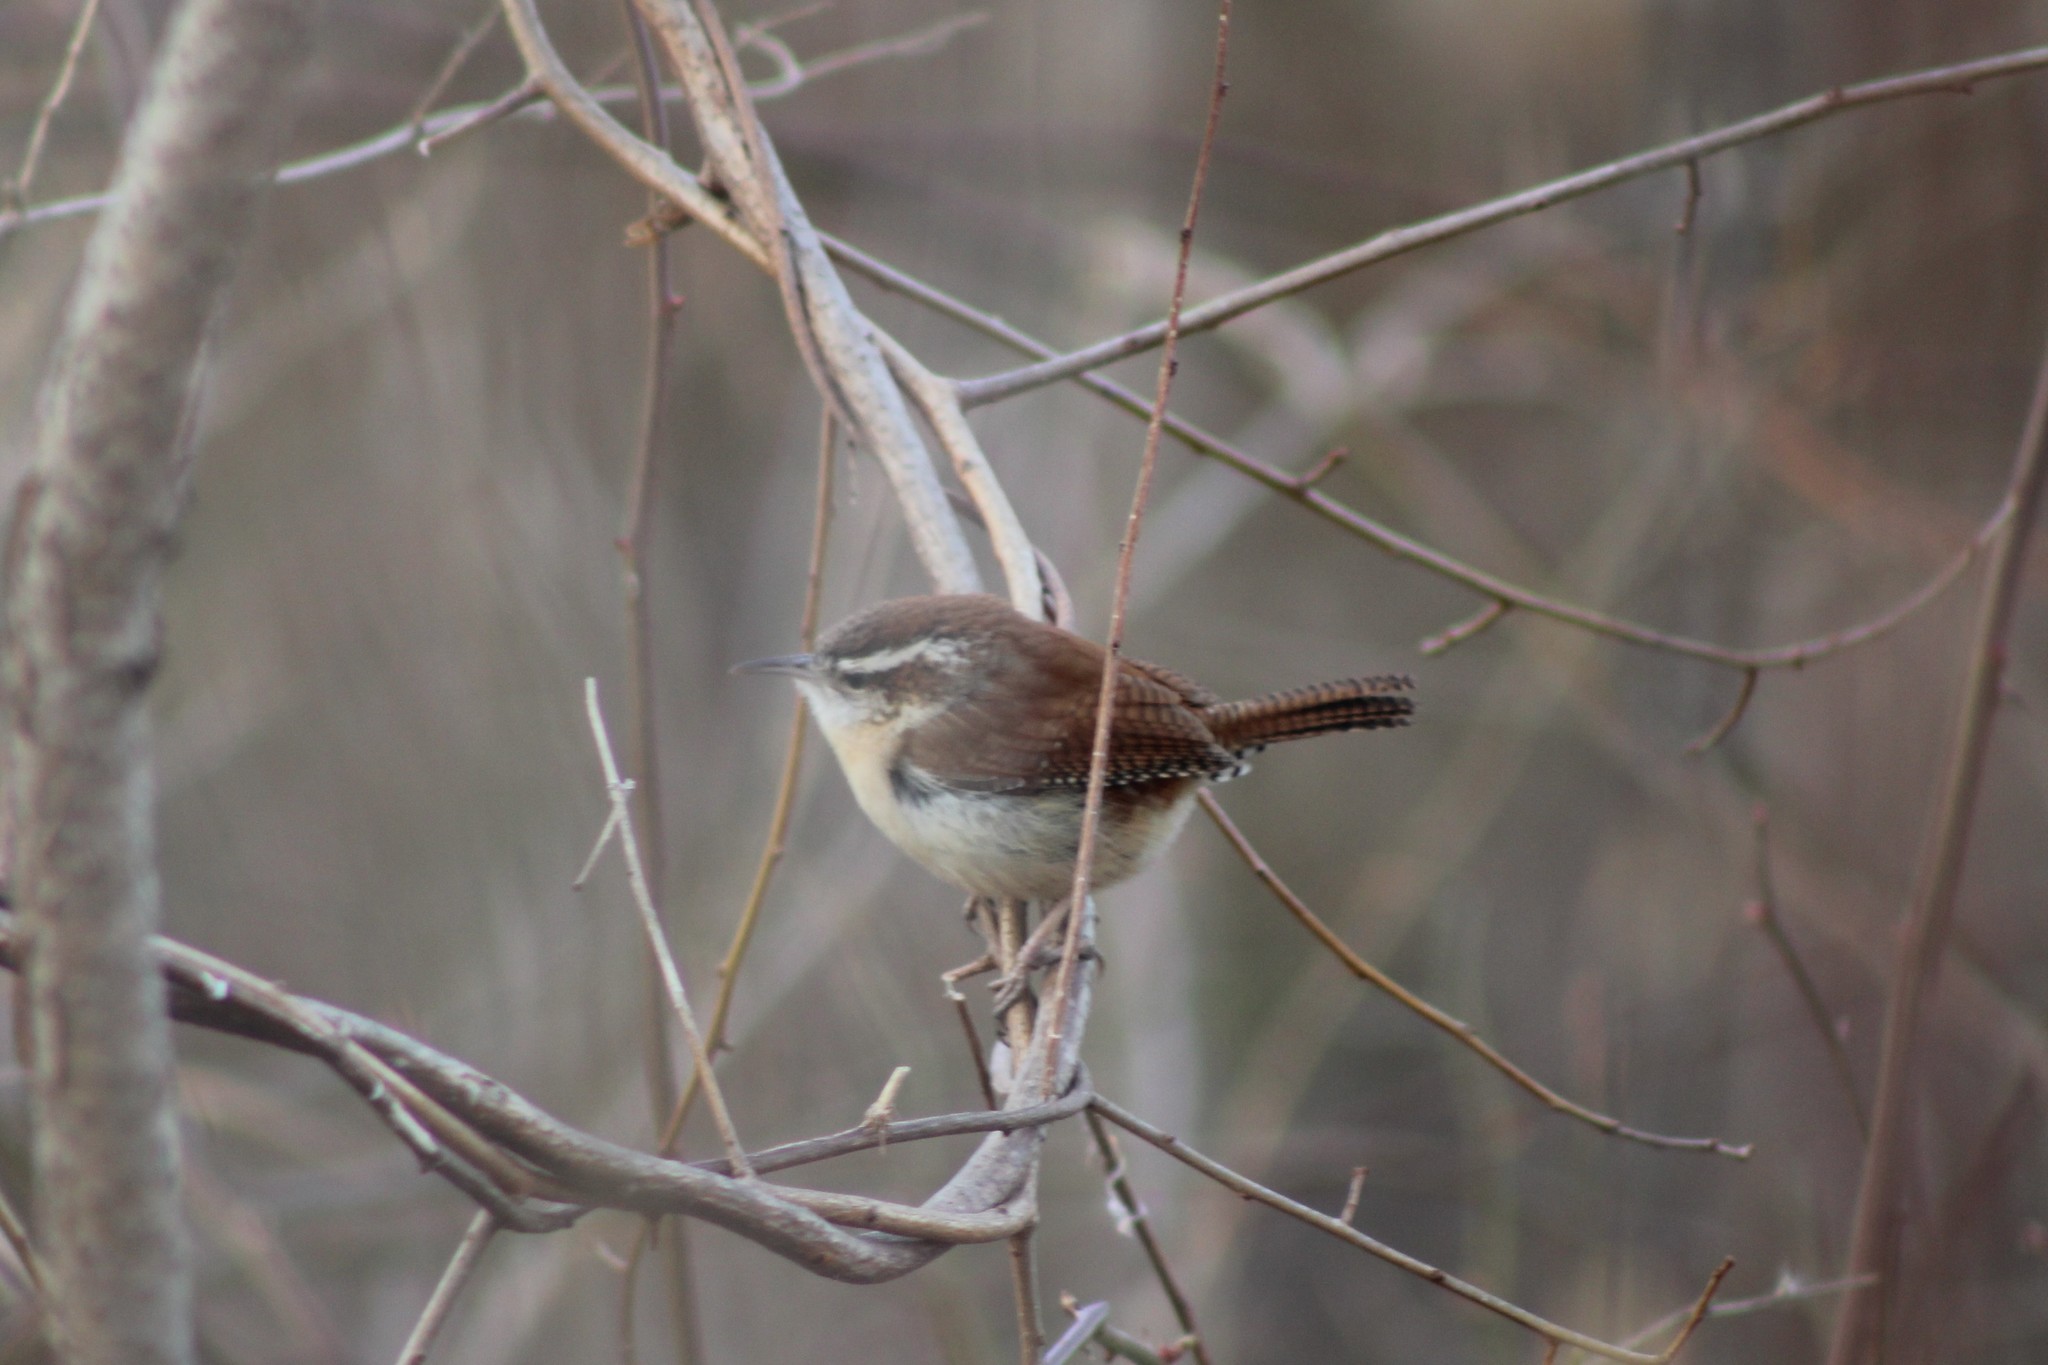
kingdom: Animalia
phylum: Chordata
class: Aves
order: Passeriformes
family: Troglodytidae
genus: Thryothorus
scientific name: Thryothorus ludovicianus
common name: Carolina wren
